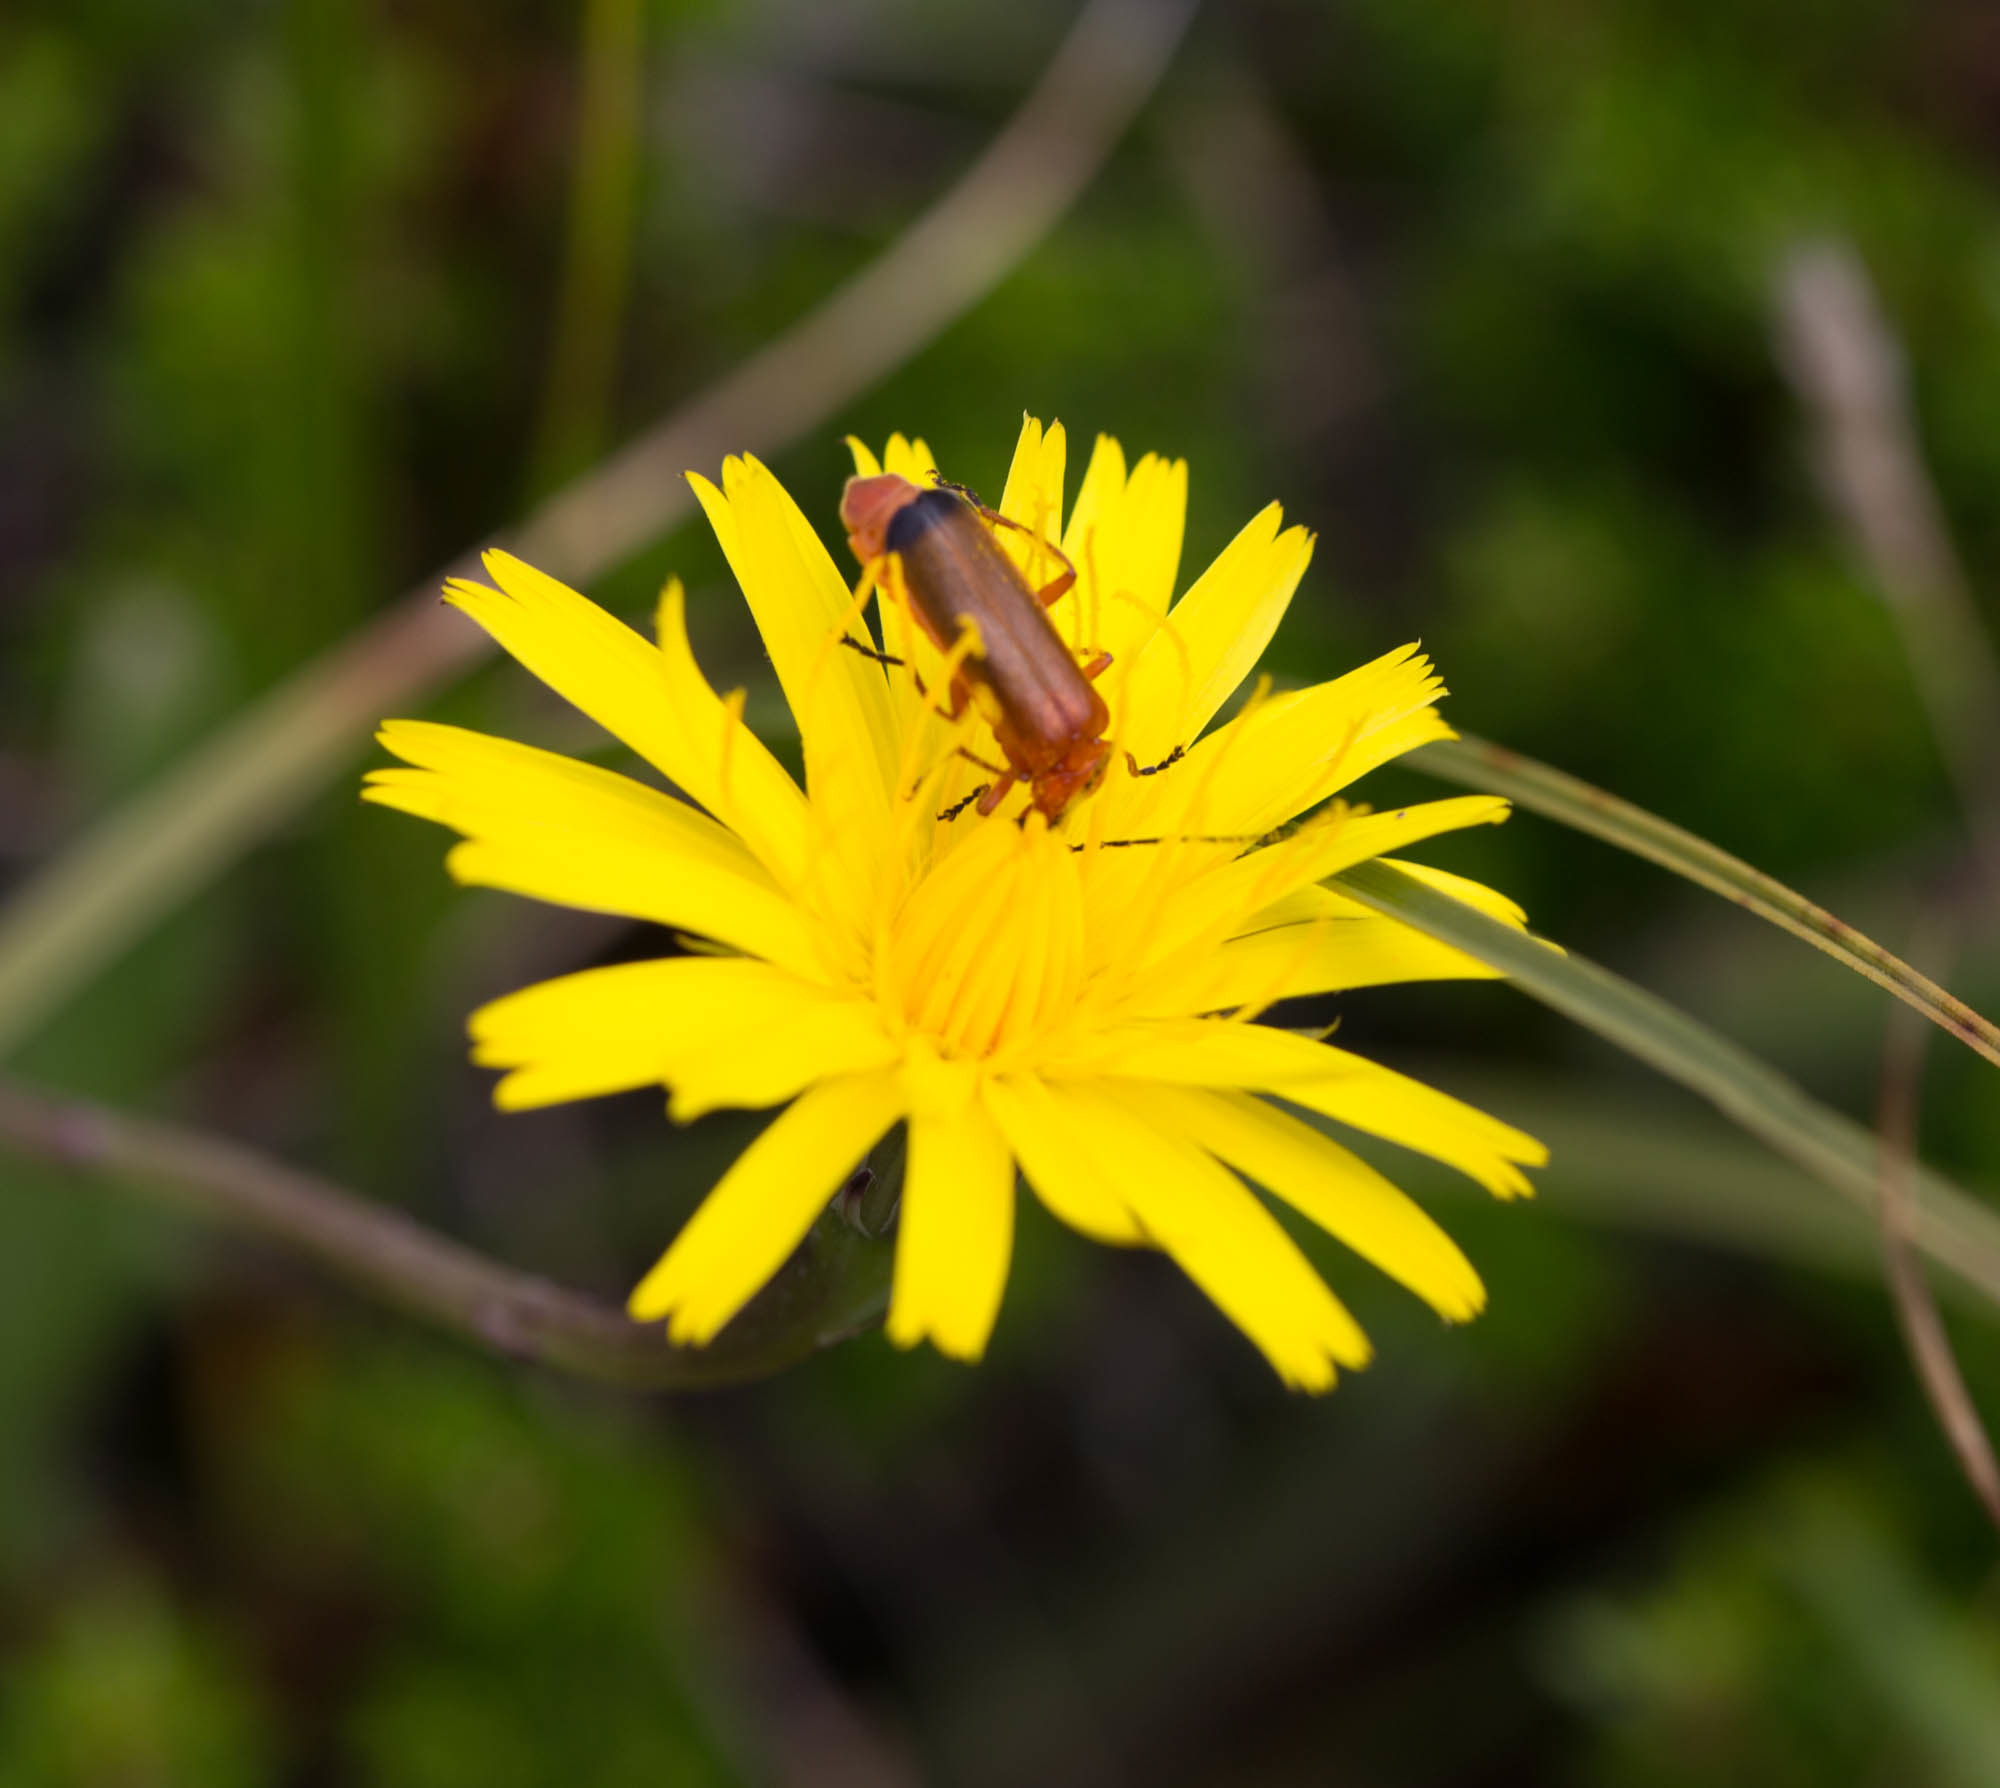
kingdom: Animalia
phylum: Arthropoda
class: Insecta
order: Coleoptera
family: Cantharidae
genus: Rhagonycha
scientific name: Rhagonycha fulva
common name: Common red soldier beetle
